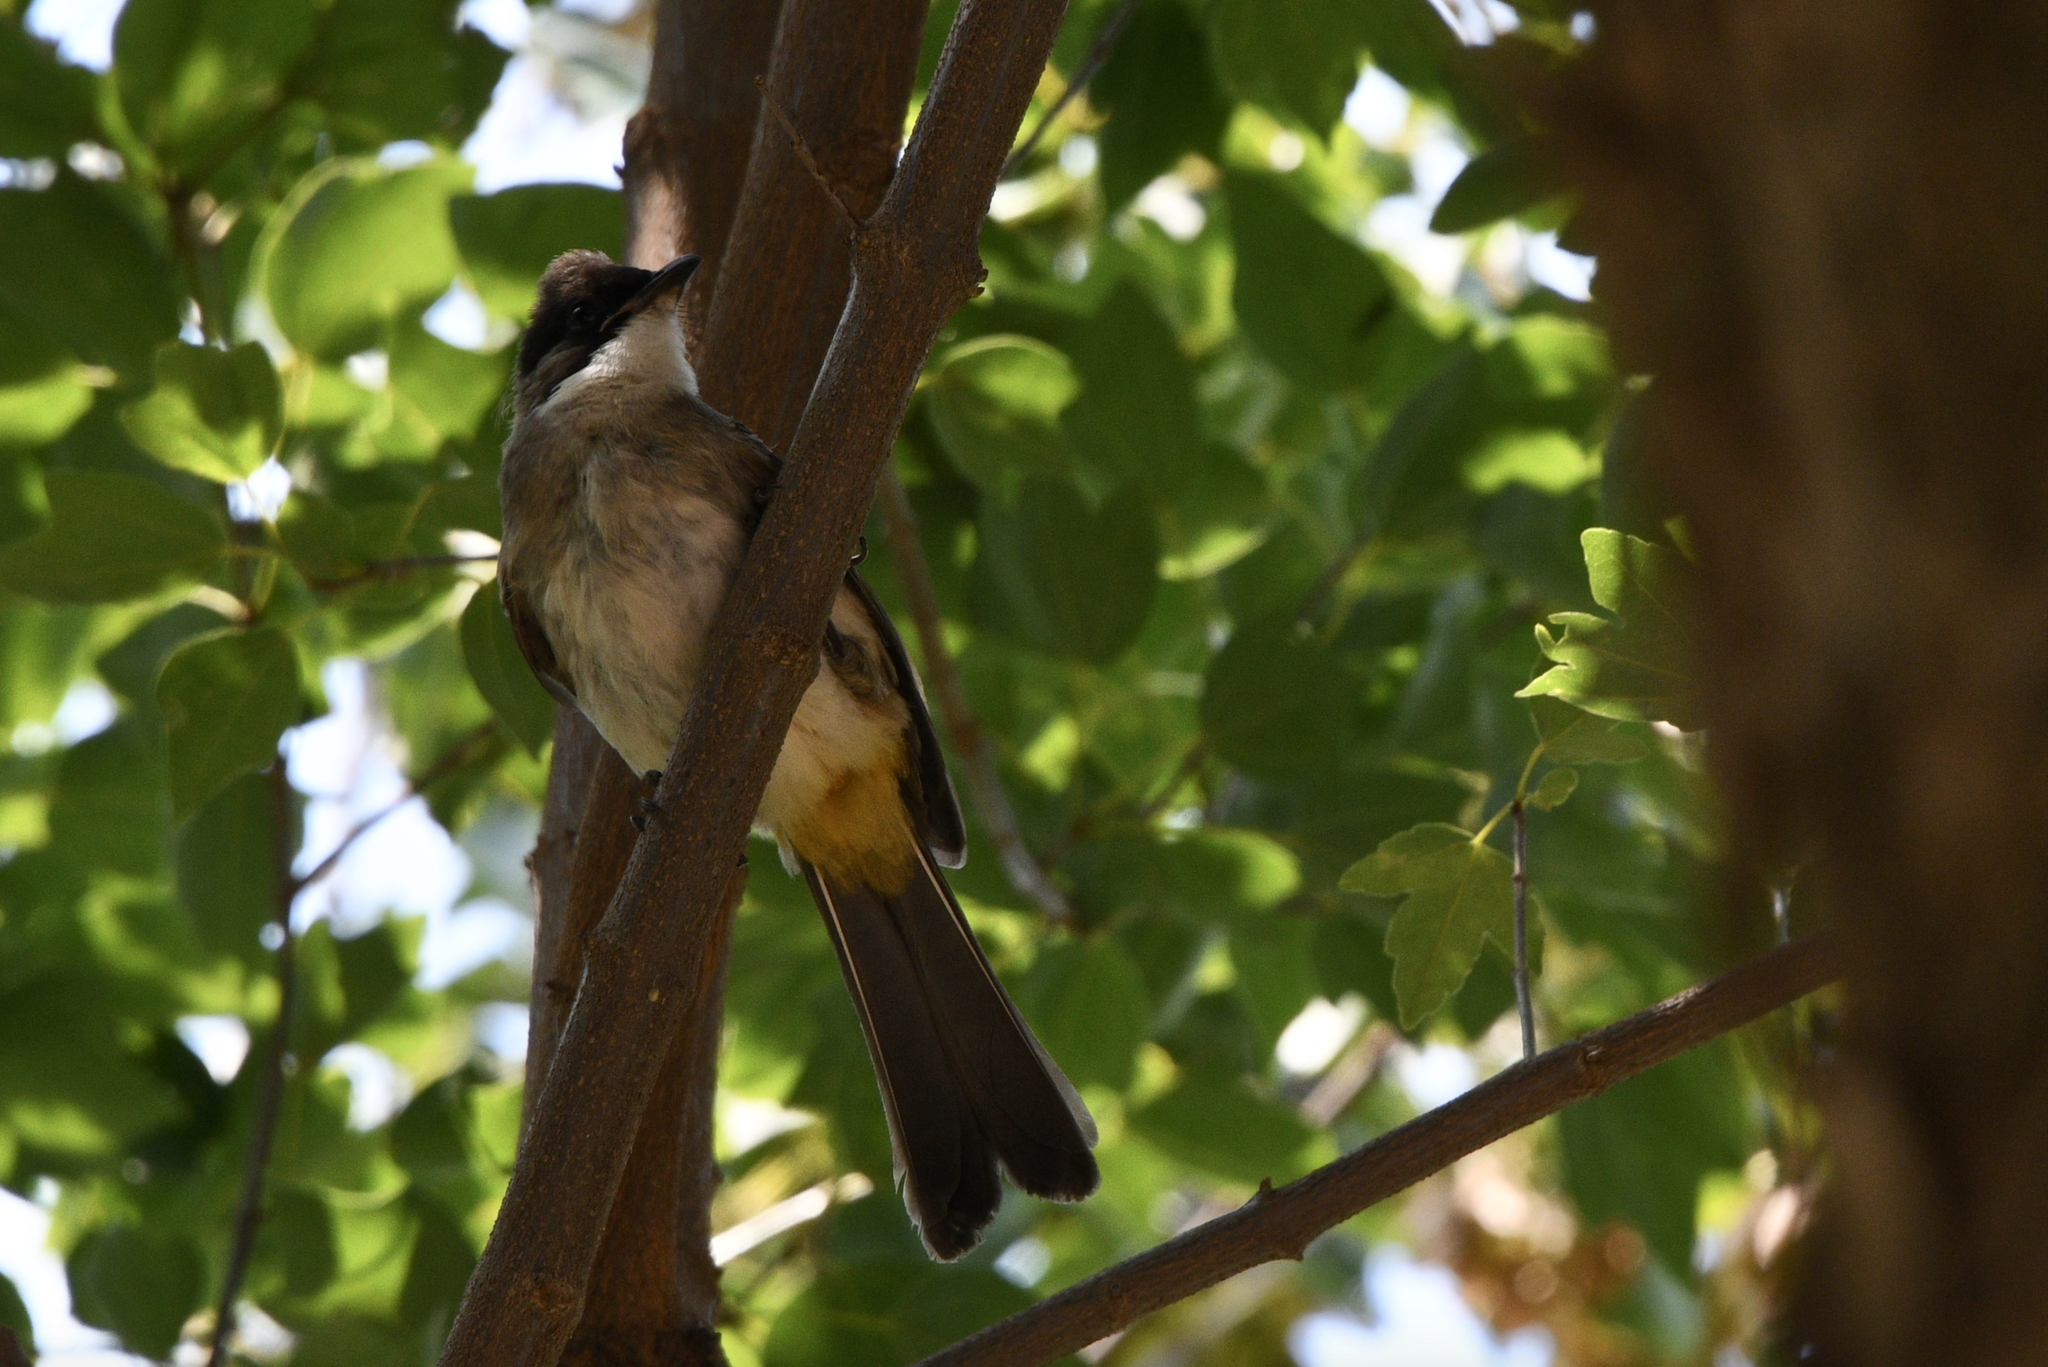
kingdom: Animalia
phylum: Chordata
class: Aves
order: Passeriformes
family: Pycnonotidae
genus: Pycnonotus
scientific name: Pycnonotus xanthorrhous
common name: Brown-breasted bulbul
